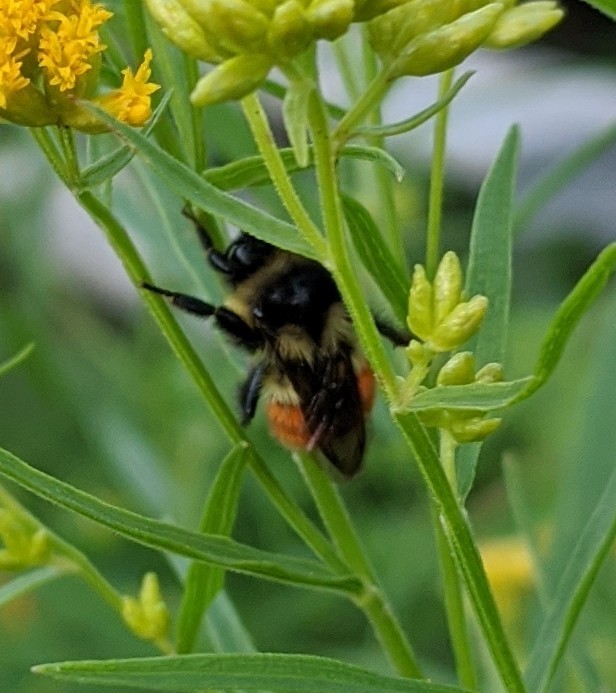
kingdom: Animalia
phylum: Arthropoda
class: Insecta
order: Hymenoptera
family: Apidae
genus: Bombus
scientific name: Bombus ternarius
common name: Tri-colored bumble bee
